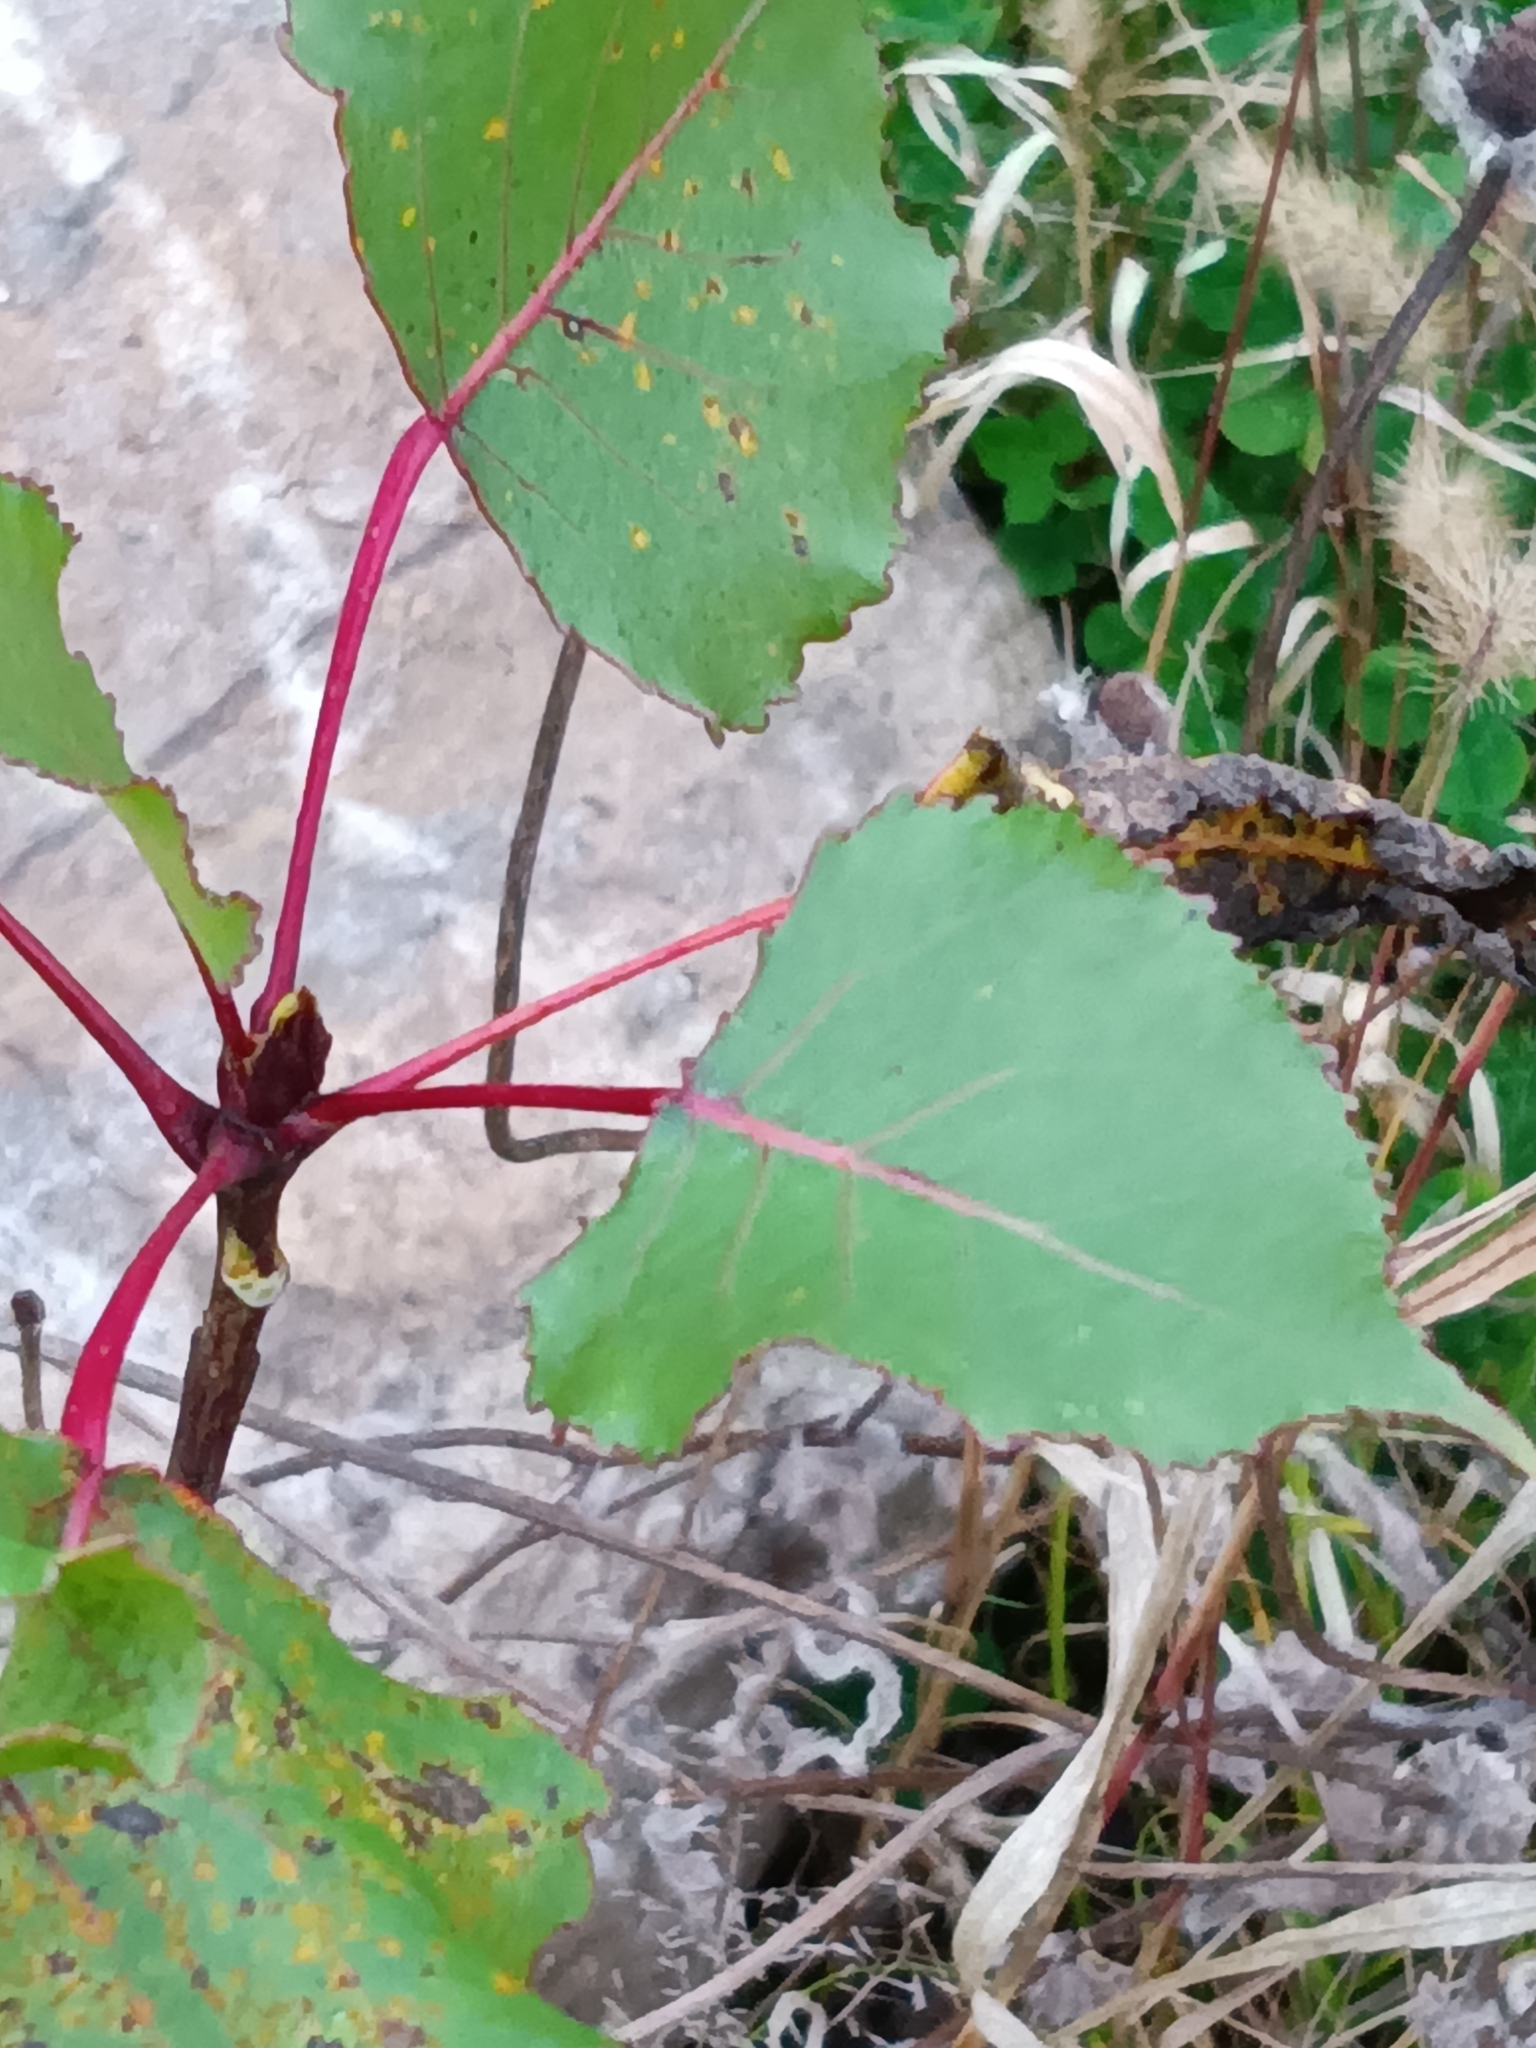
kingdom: Plantae
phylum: Tracheophyta
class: Magnoliopsida
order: Malpighiales
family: Salicaceae
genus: Populus
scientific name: Populus deltoides
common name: Eastern cottonwood
